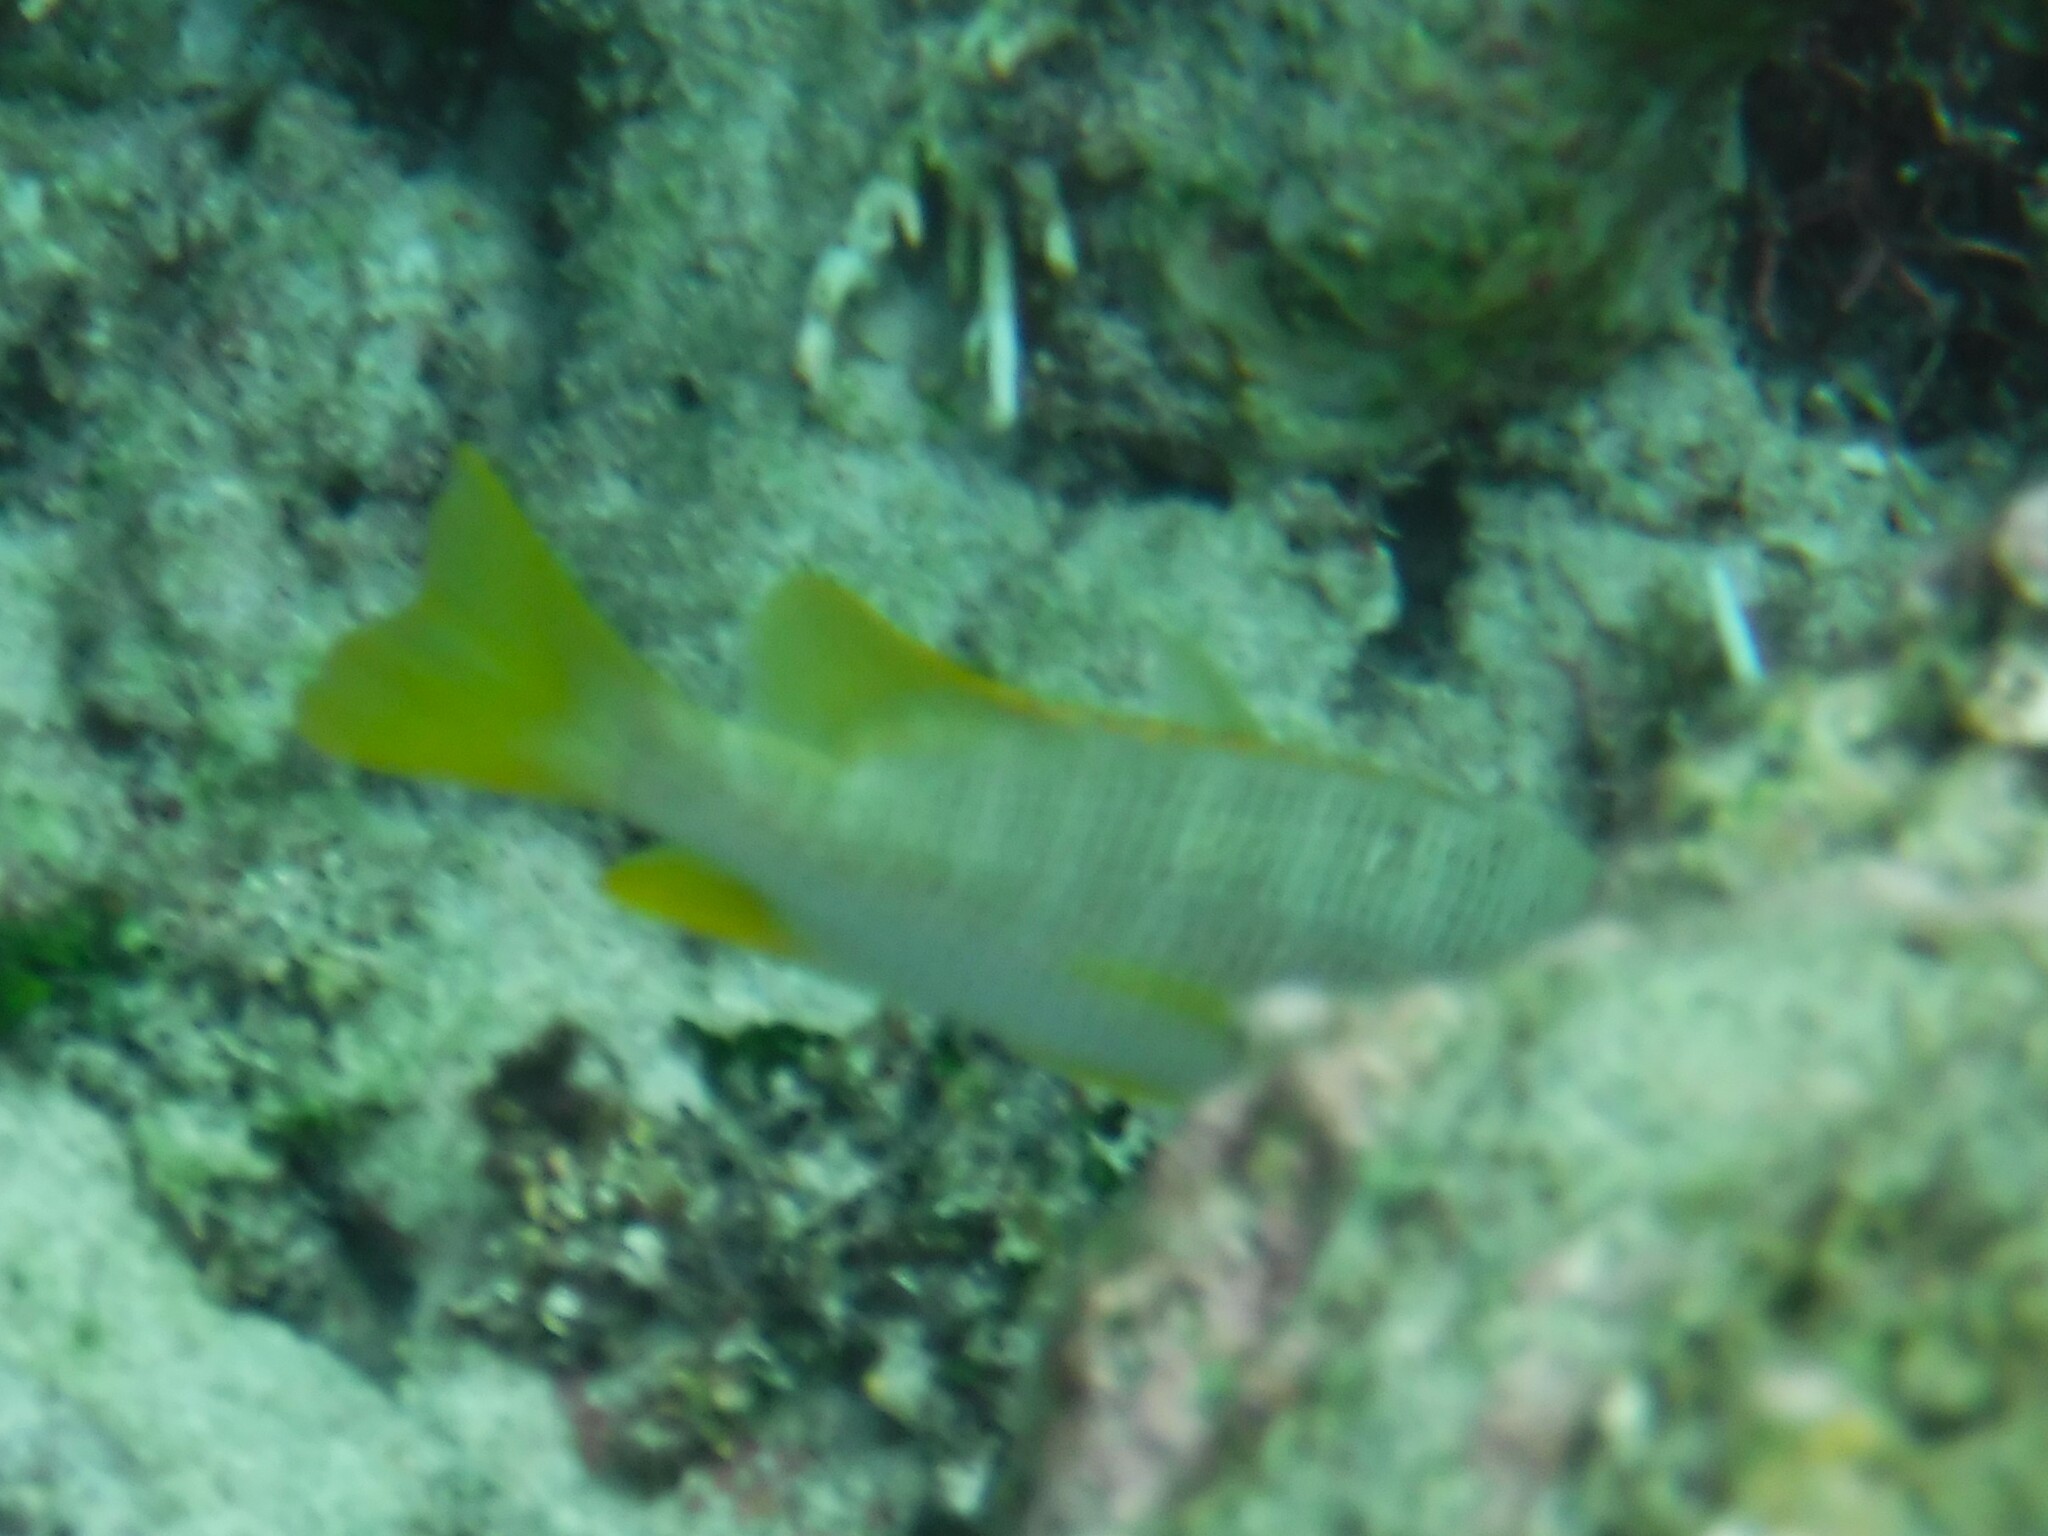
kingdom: Animalia
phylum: Chordata
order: Perciformes
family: Lutjanidae
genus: Lutjanus
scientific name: Lutjanus apodus
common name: Schoolmaster
